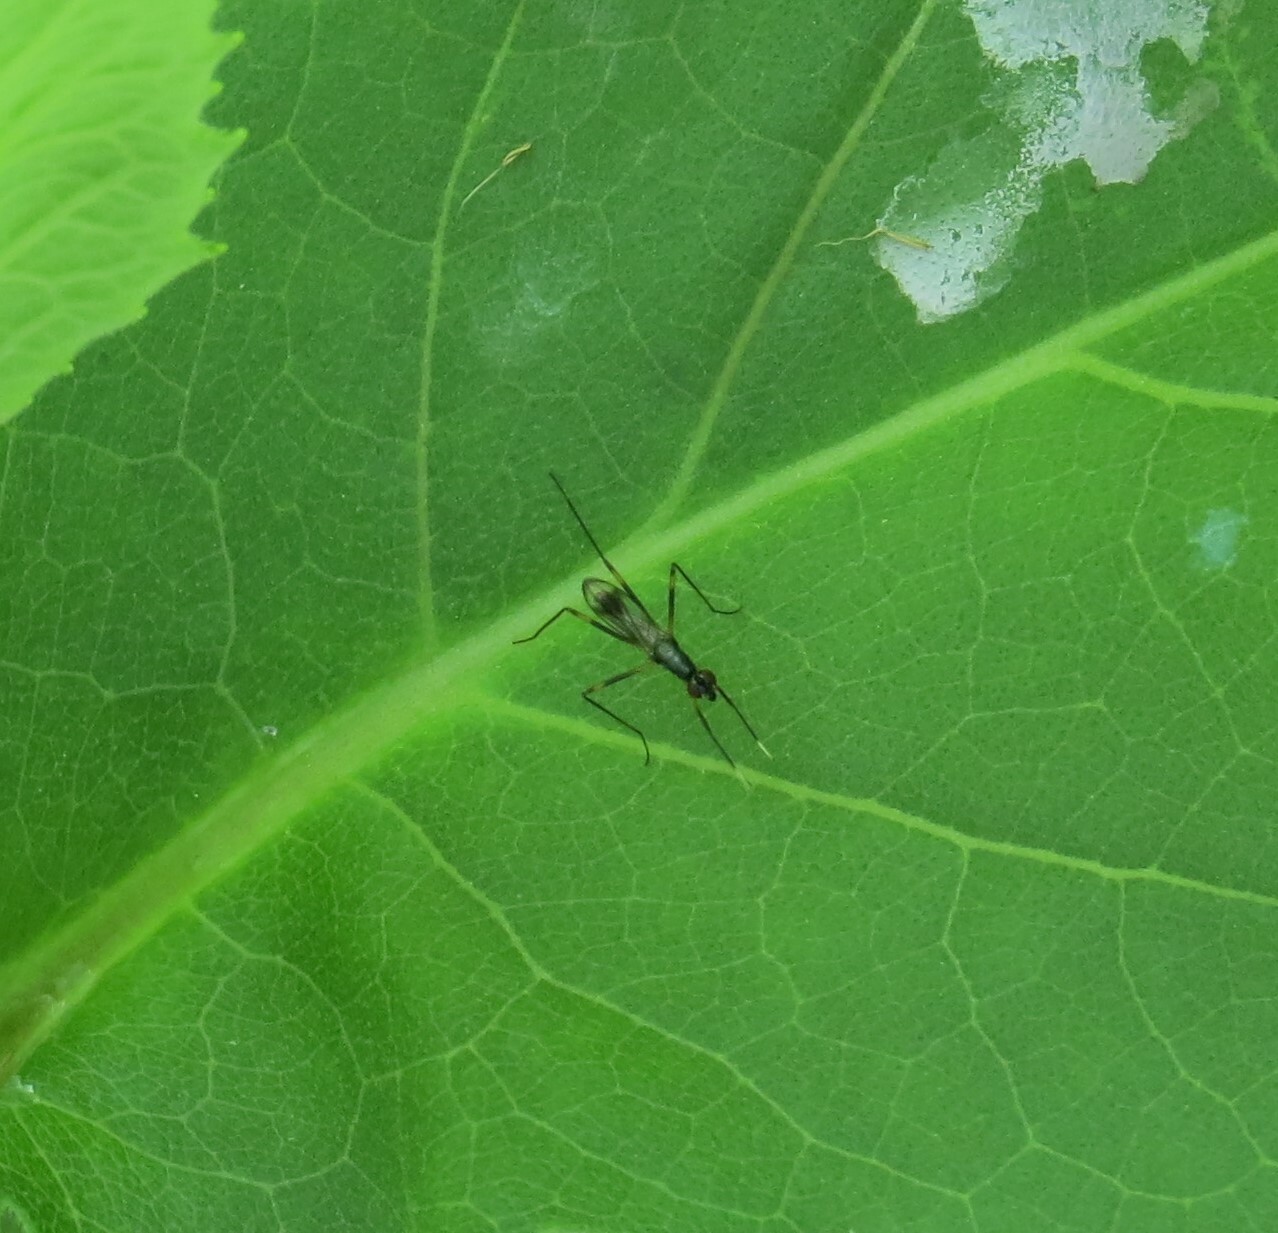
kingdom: Animalia
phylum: Arthropoda
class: Insecta
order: Diptera
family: Micropezidae
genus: Rainieria
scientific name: Rainieria antennaepes
